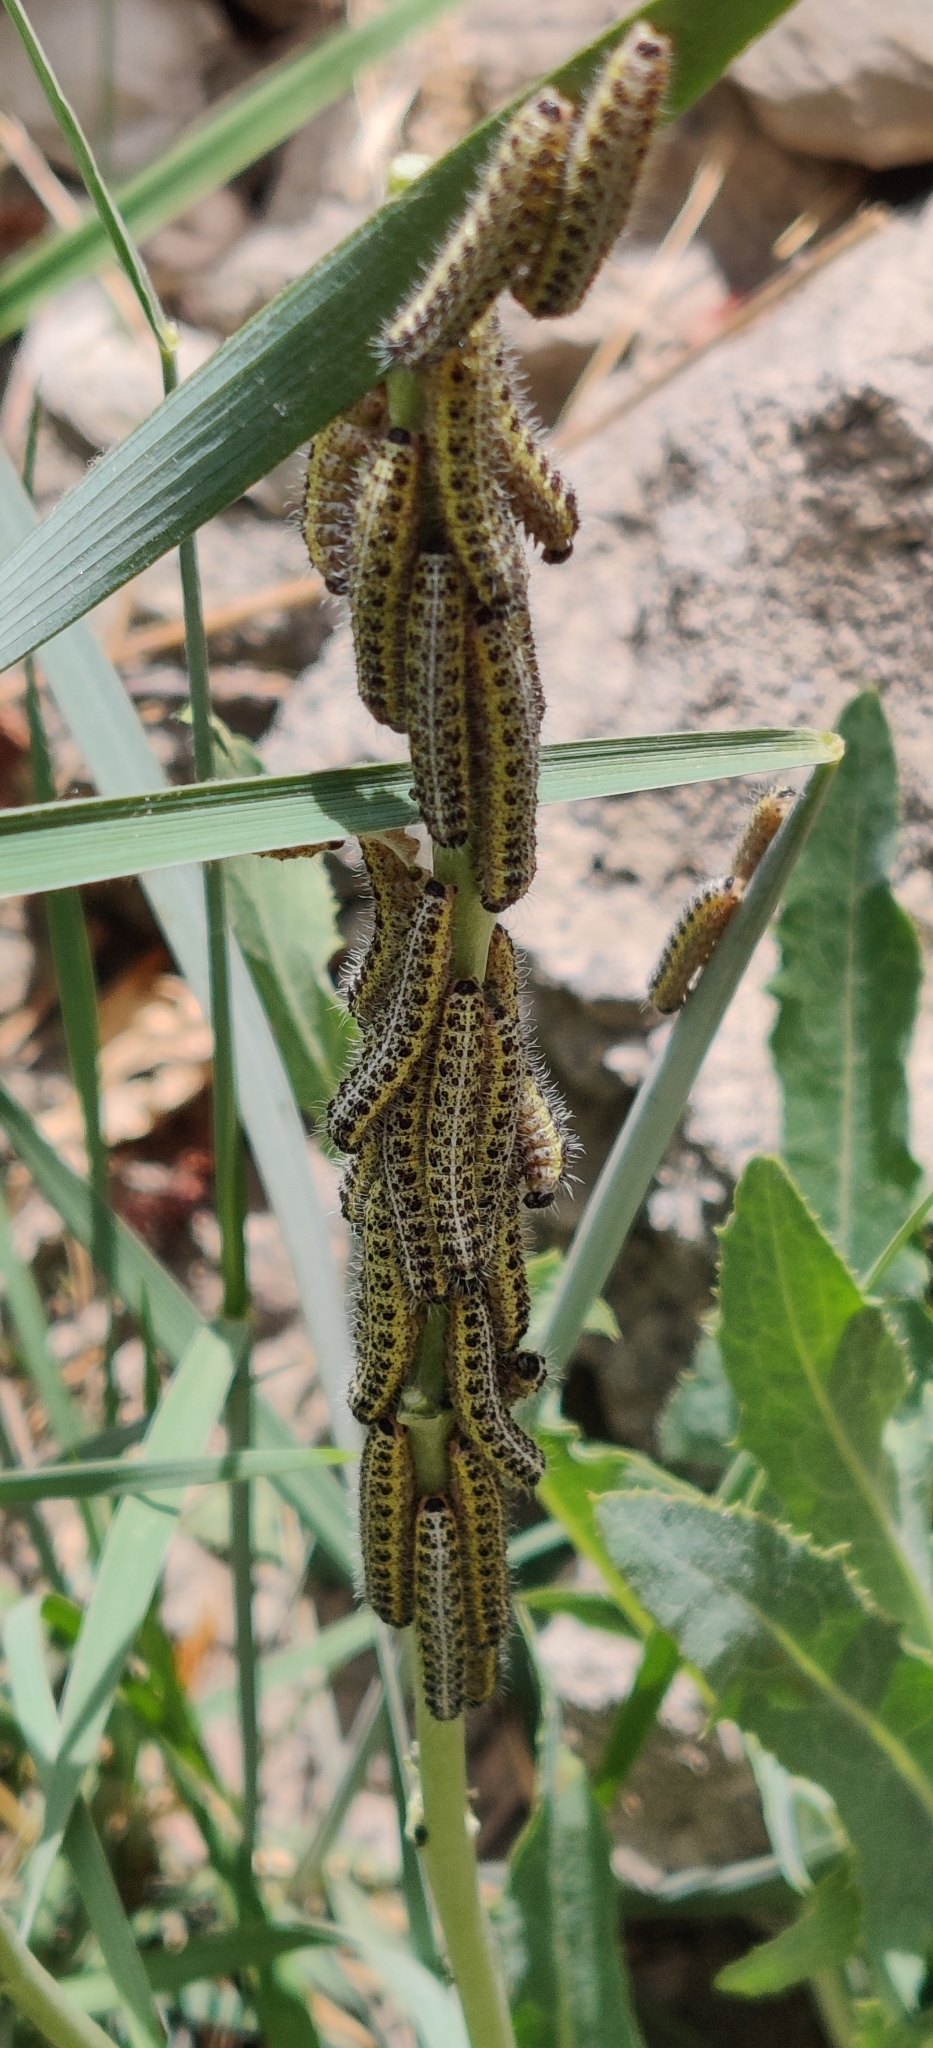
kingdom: Animalia
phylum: Arthropoda
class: Insecta
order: Lepidoptera
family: Pieridae
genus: Pieris
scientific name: Pieris brassicae
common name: Large white
